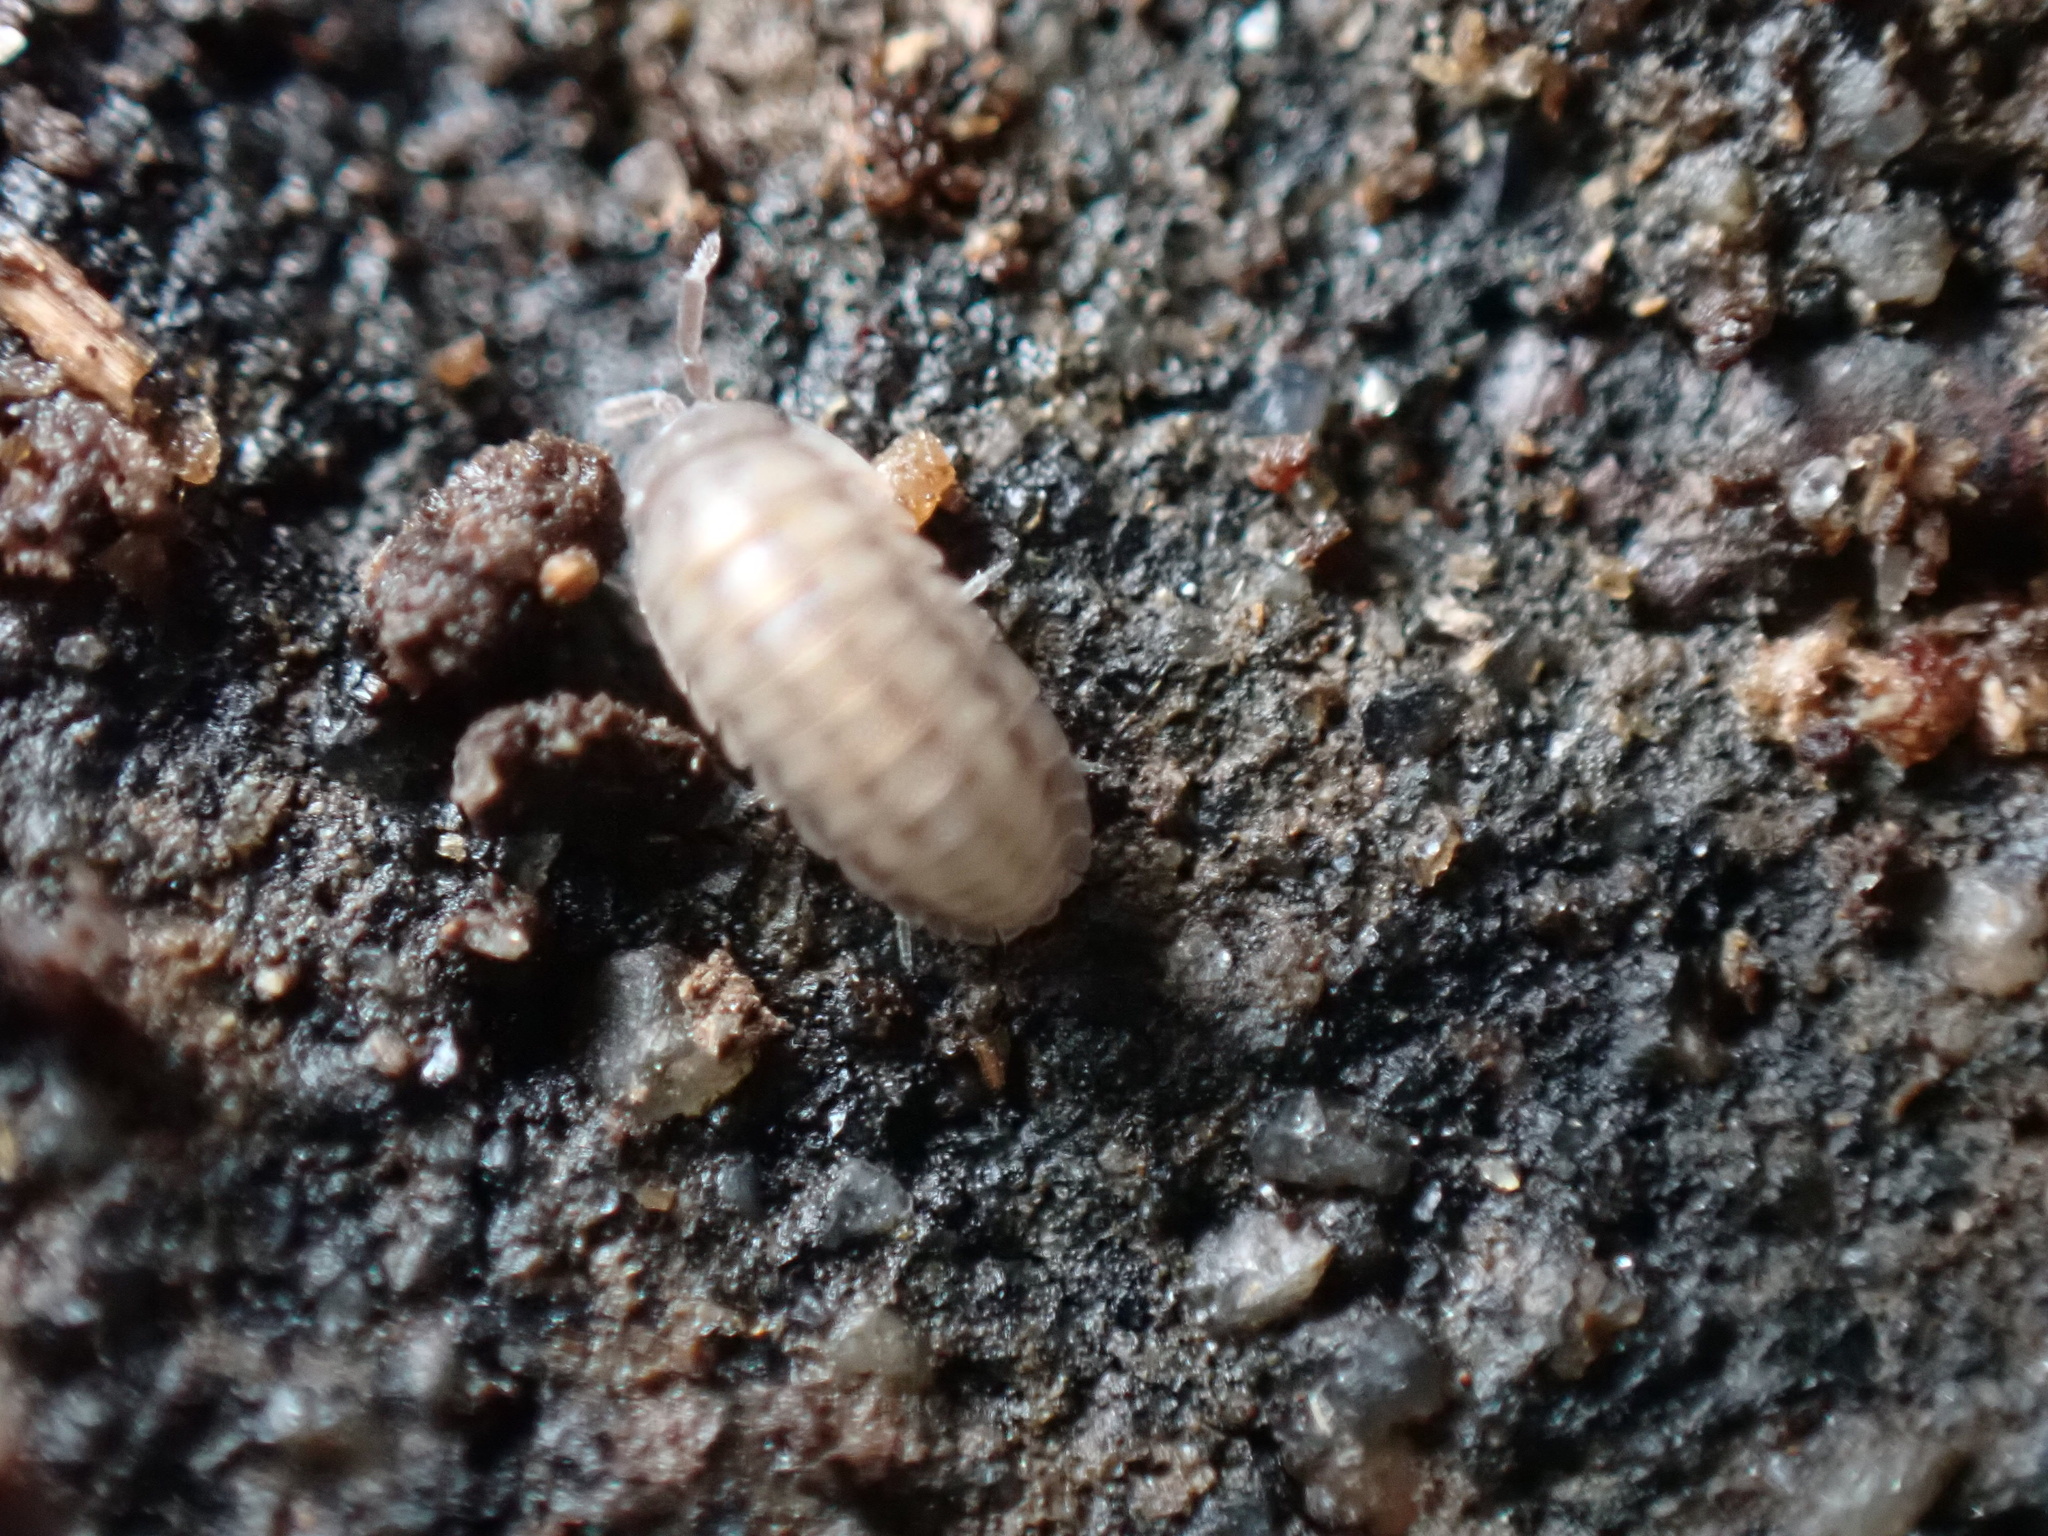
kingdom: Animalia
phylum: Arthropoda
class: Malacostraca
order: Isopoda
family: Armadillidiidae
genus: Armadillidium
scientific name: Armadillidium nasatum
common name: Isopod
